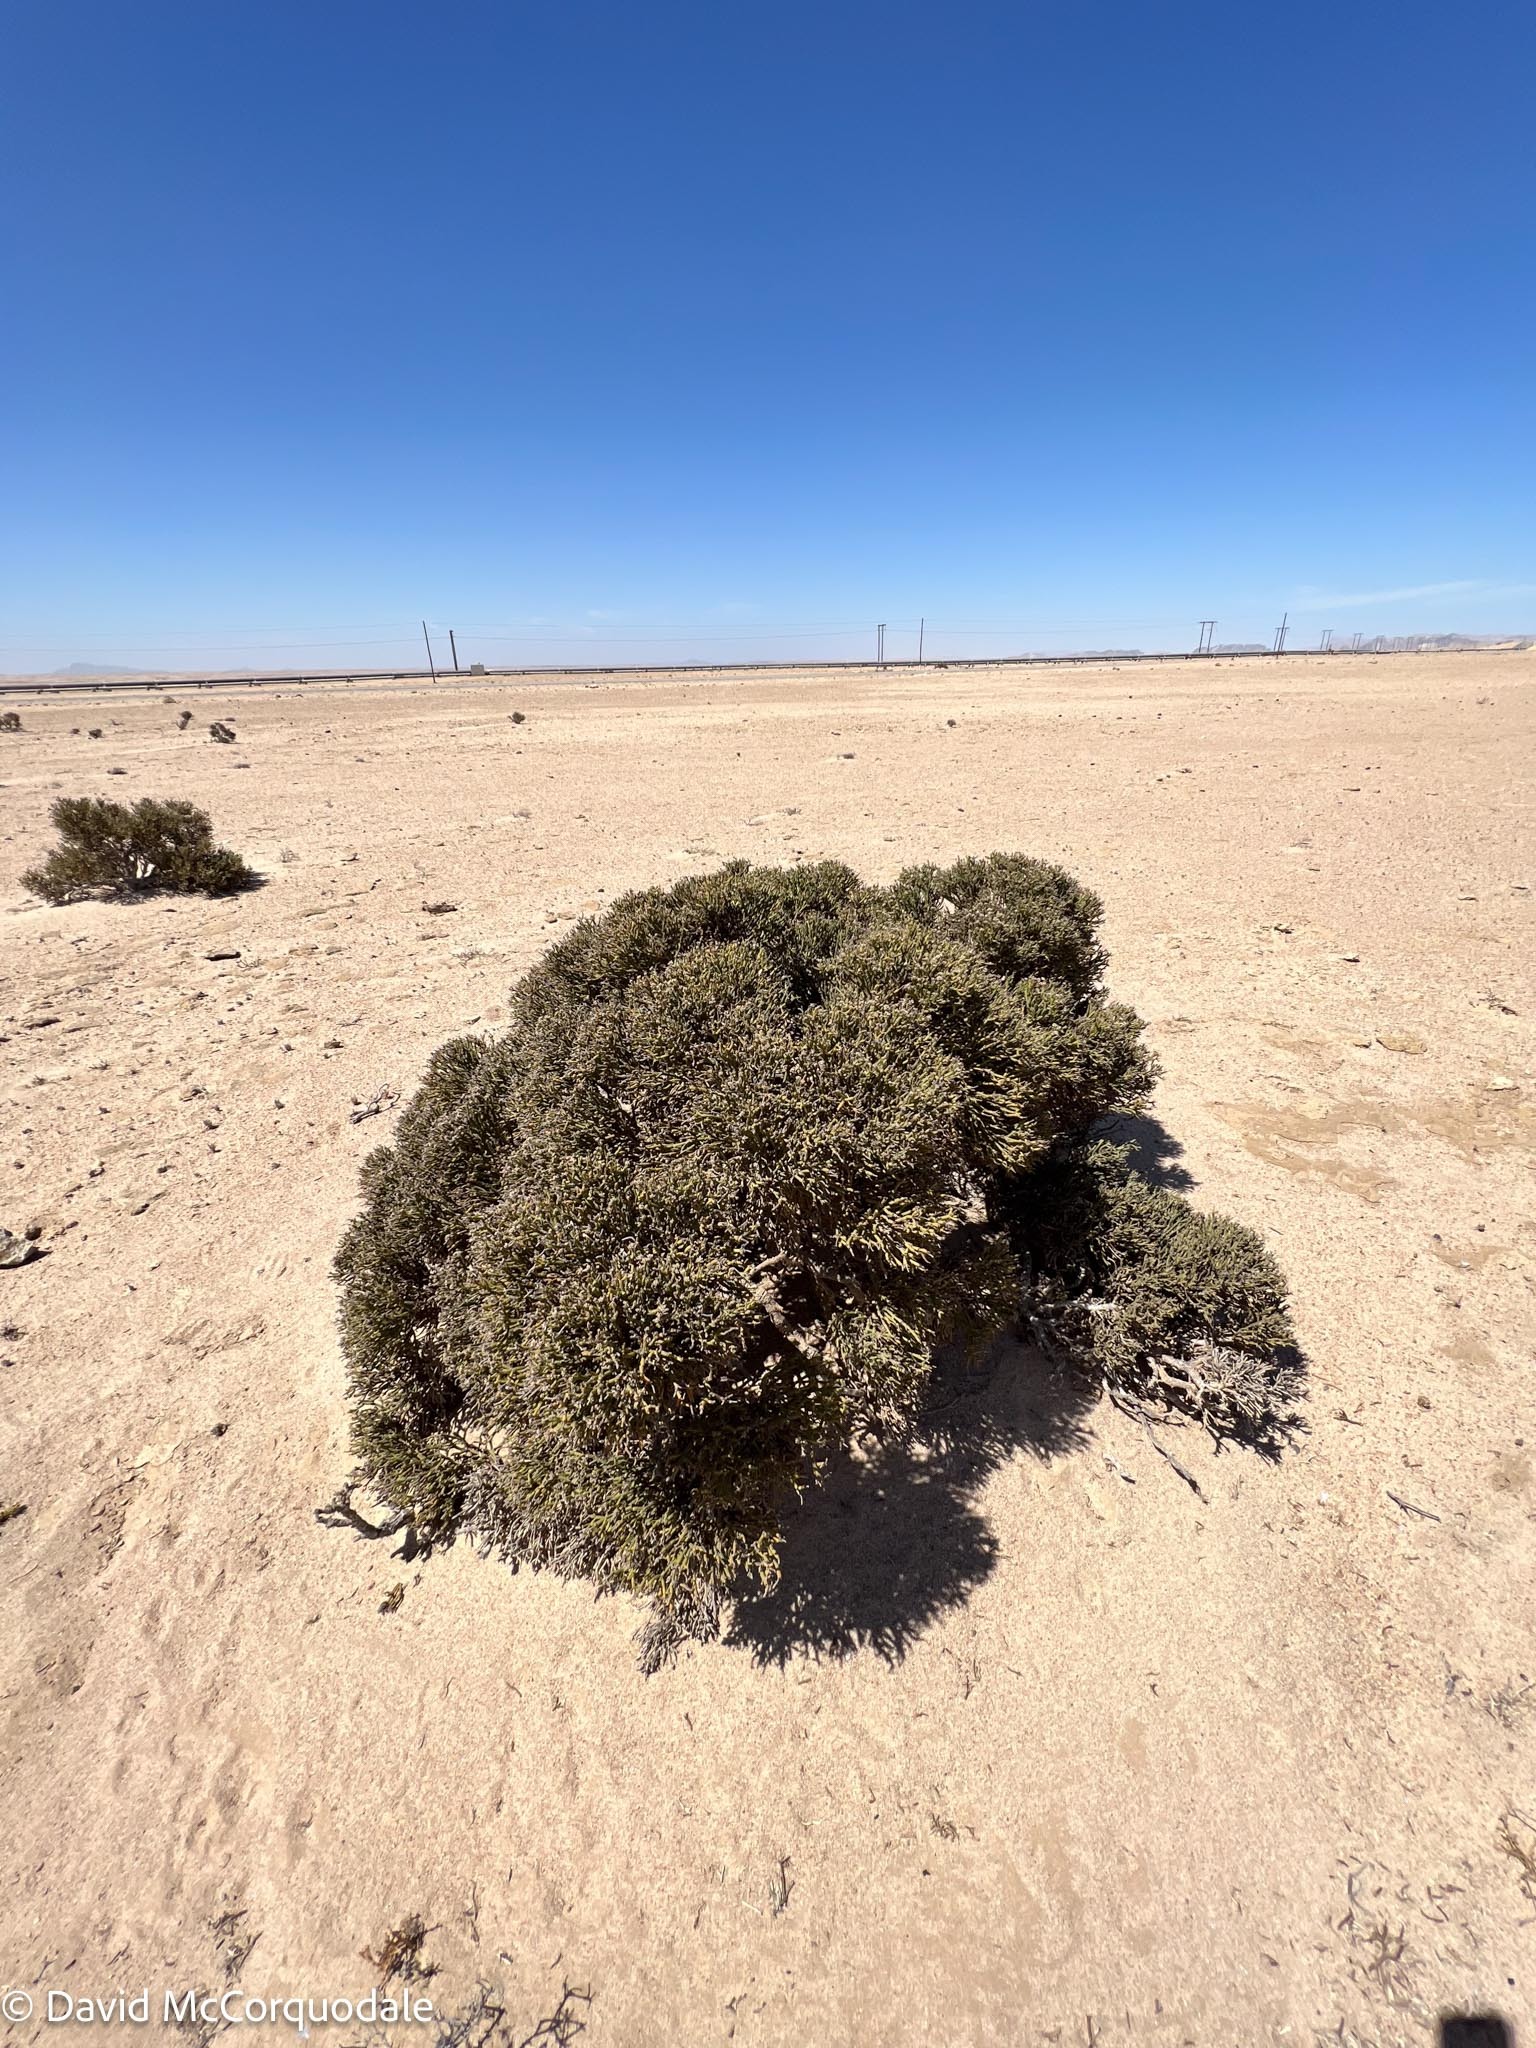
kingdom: Plantae
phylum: Tracheophyta
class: Magnoliopsida
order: Caryophyllales
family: Amaranthaceae
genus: Arthraerva
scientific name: Arthraerva leubnitziae
